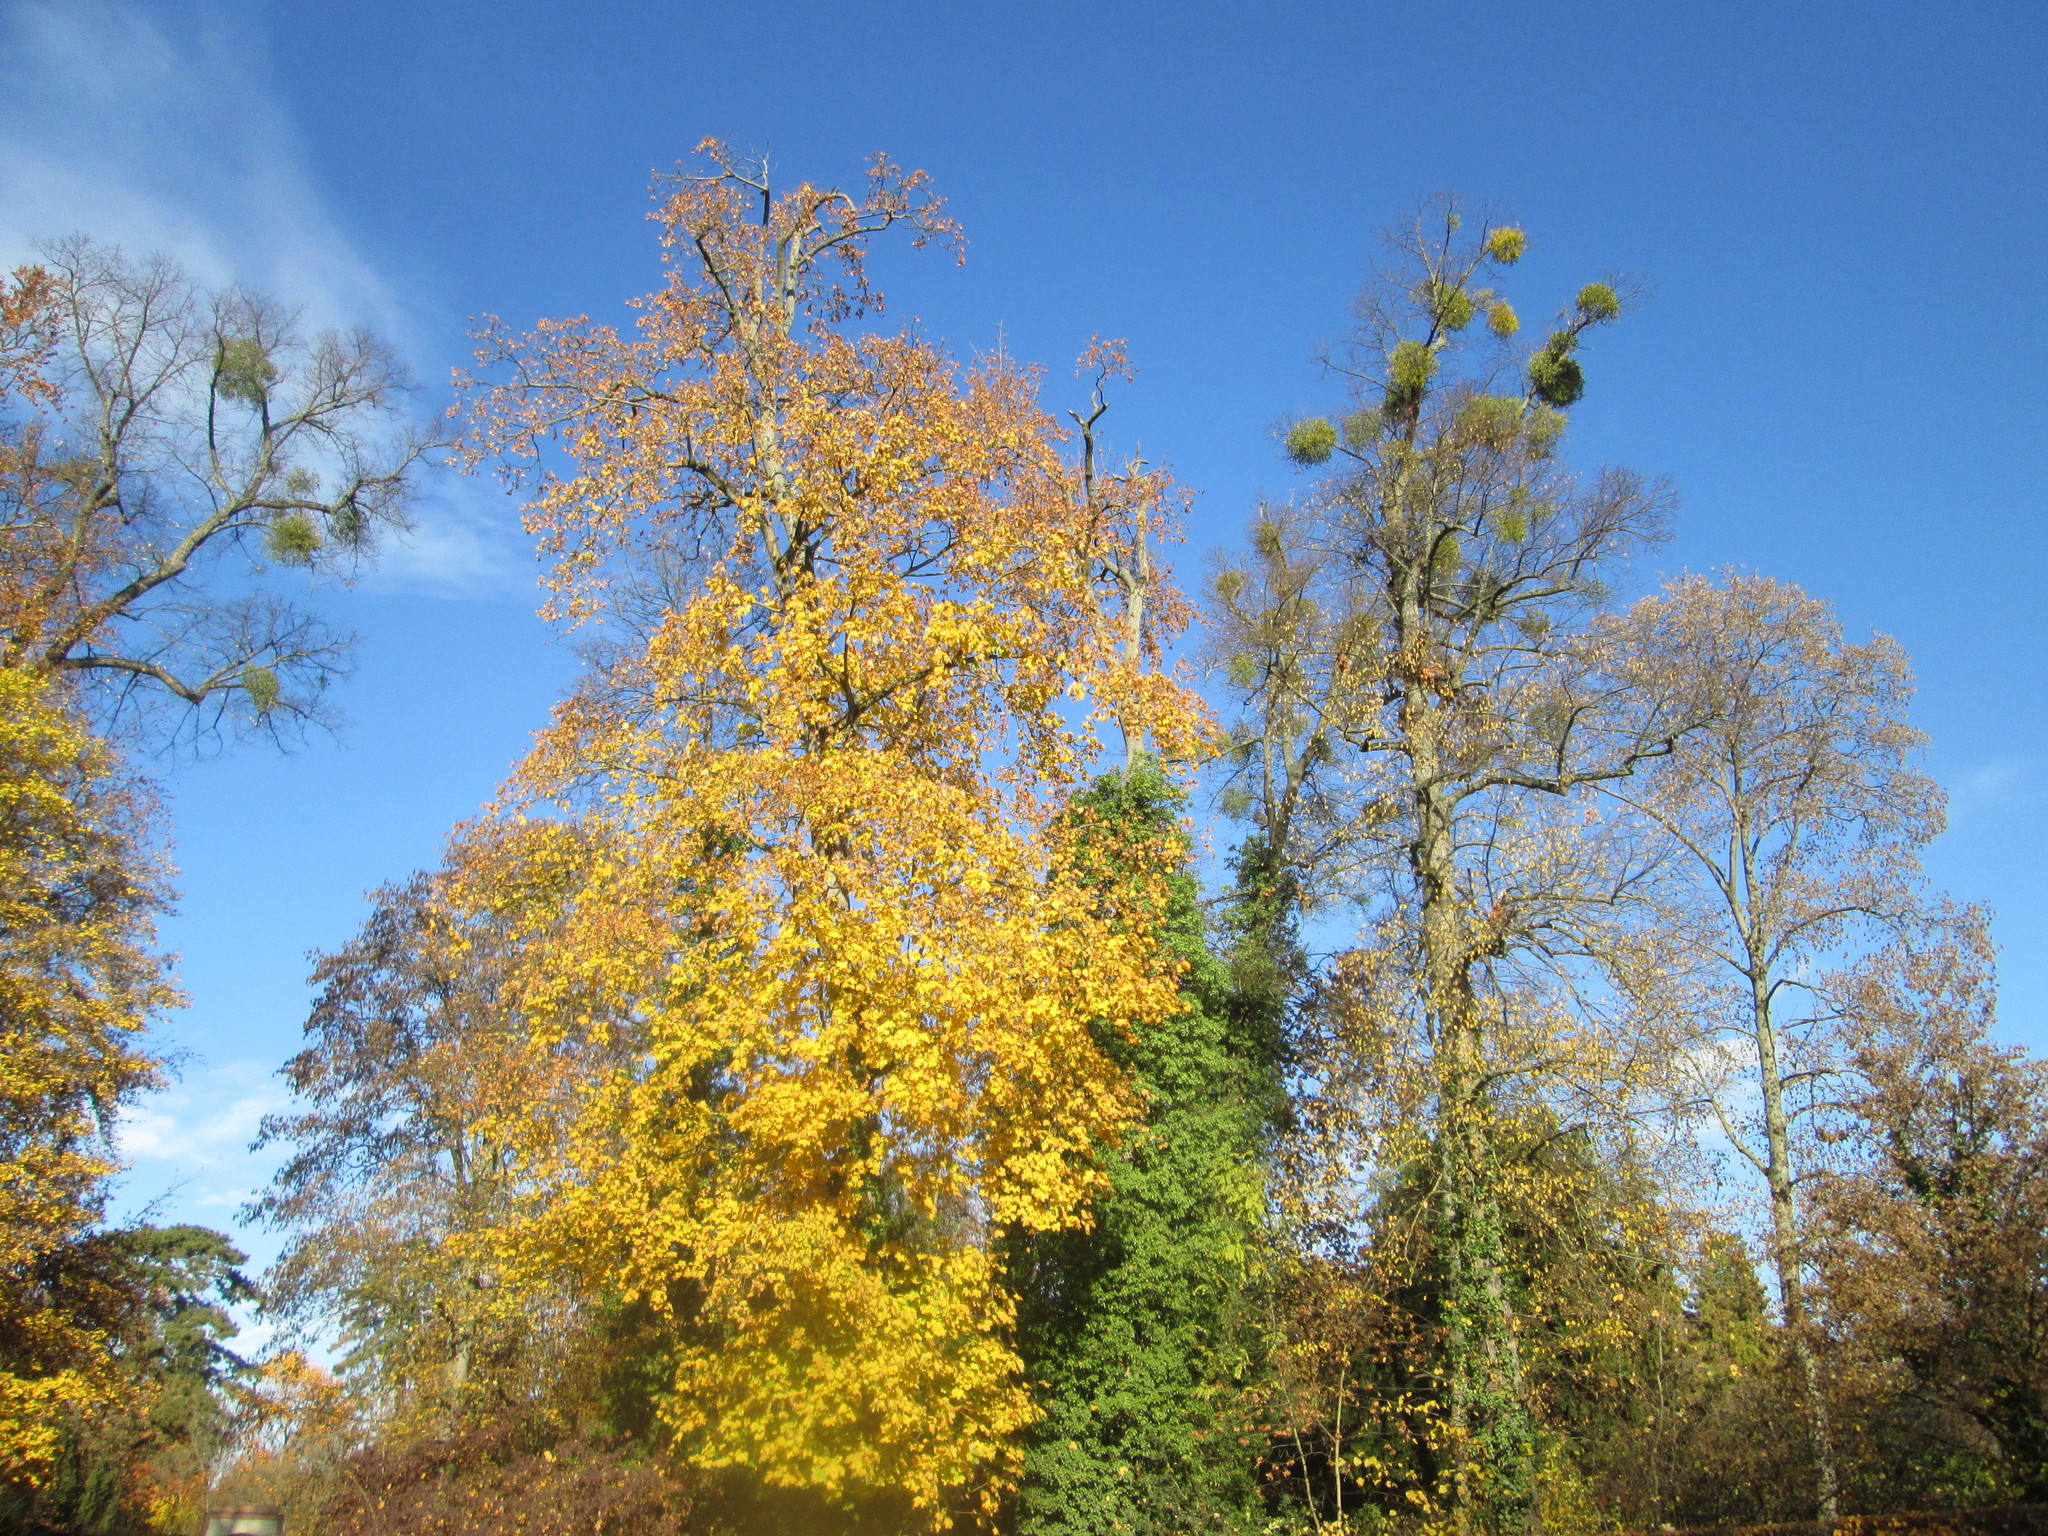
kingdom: Plantae
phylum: Tracheophyta
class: Magnoliopsida
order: Sapindales
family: Sapindaceae
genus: Acer
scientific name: Acer platanoides
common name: Norway maple
